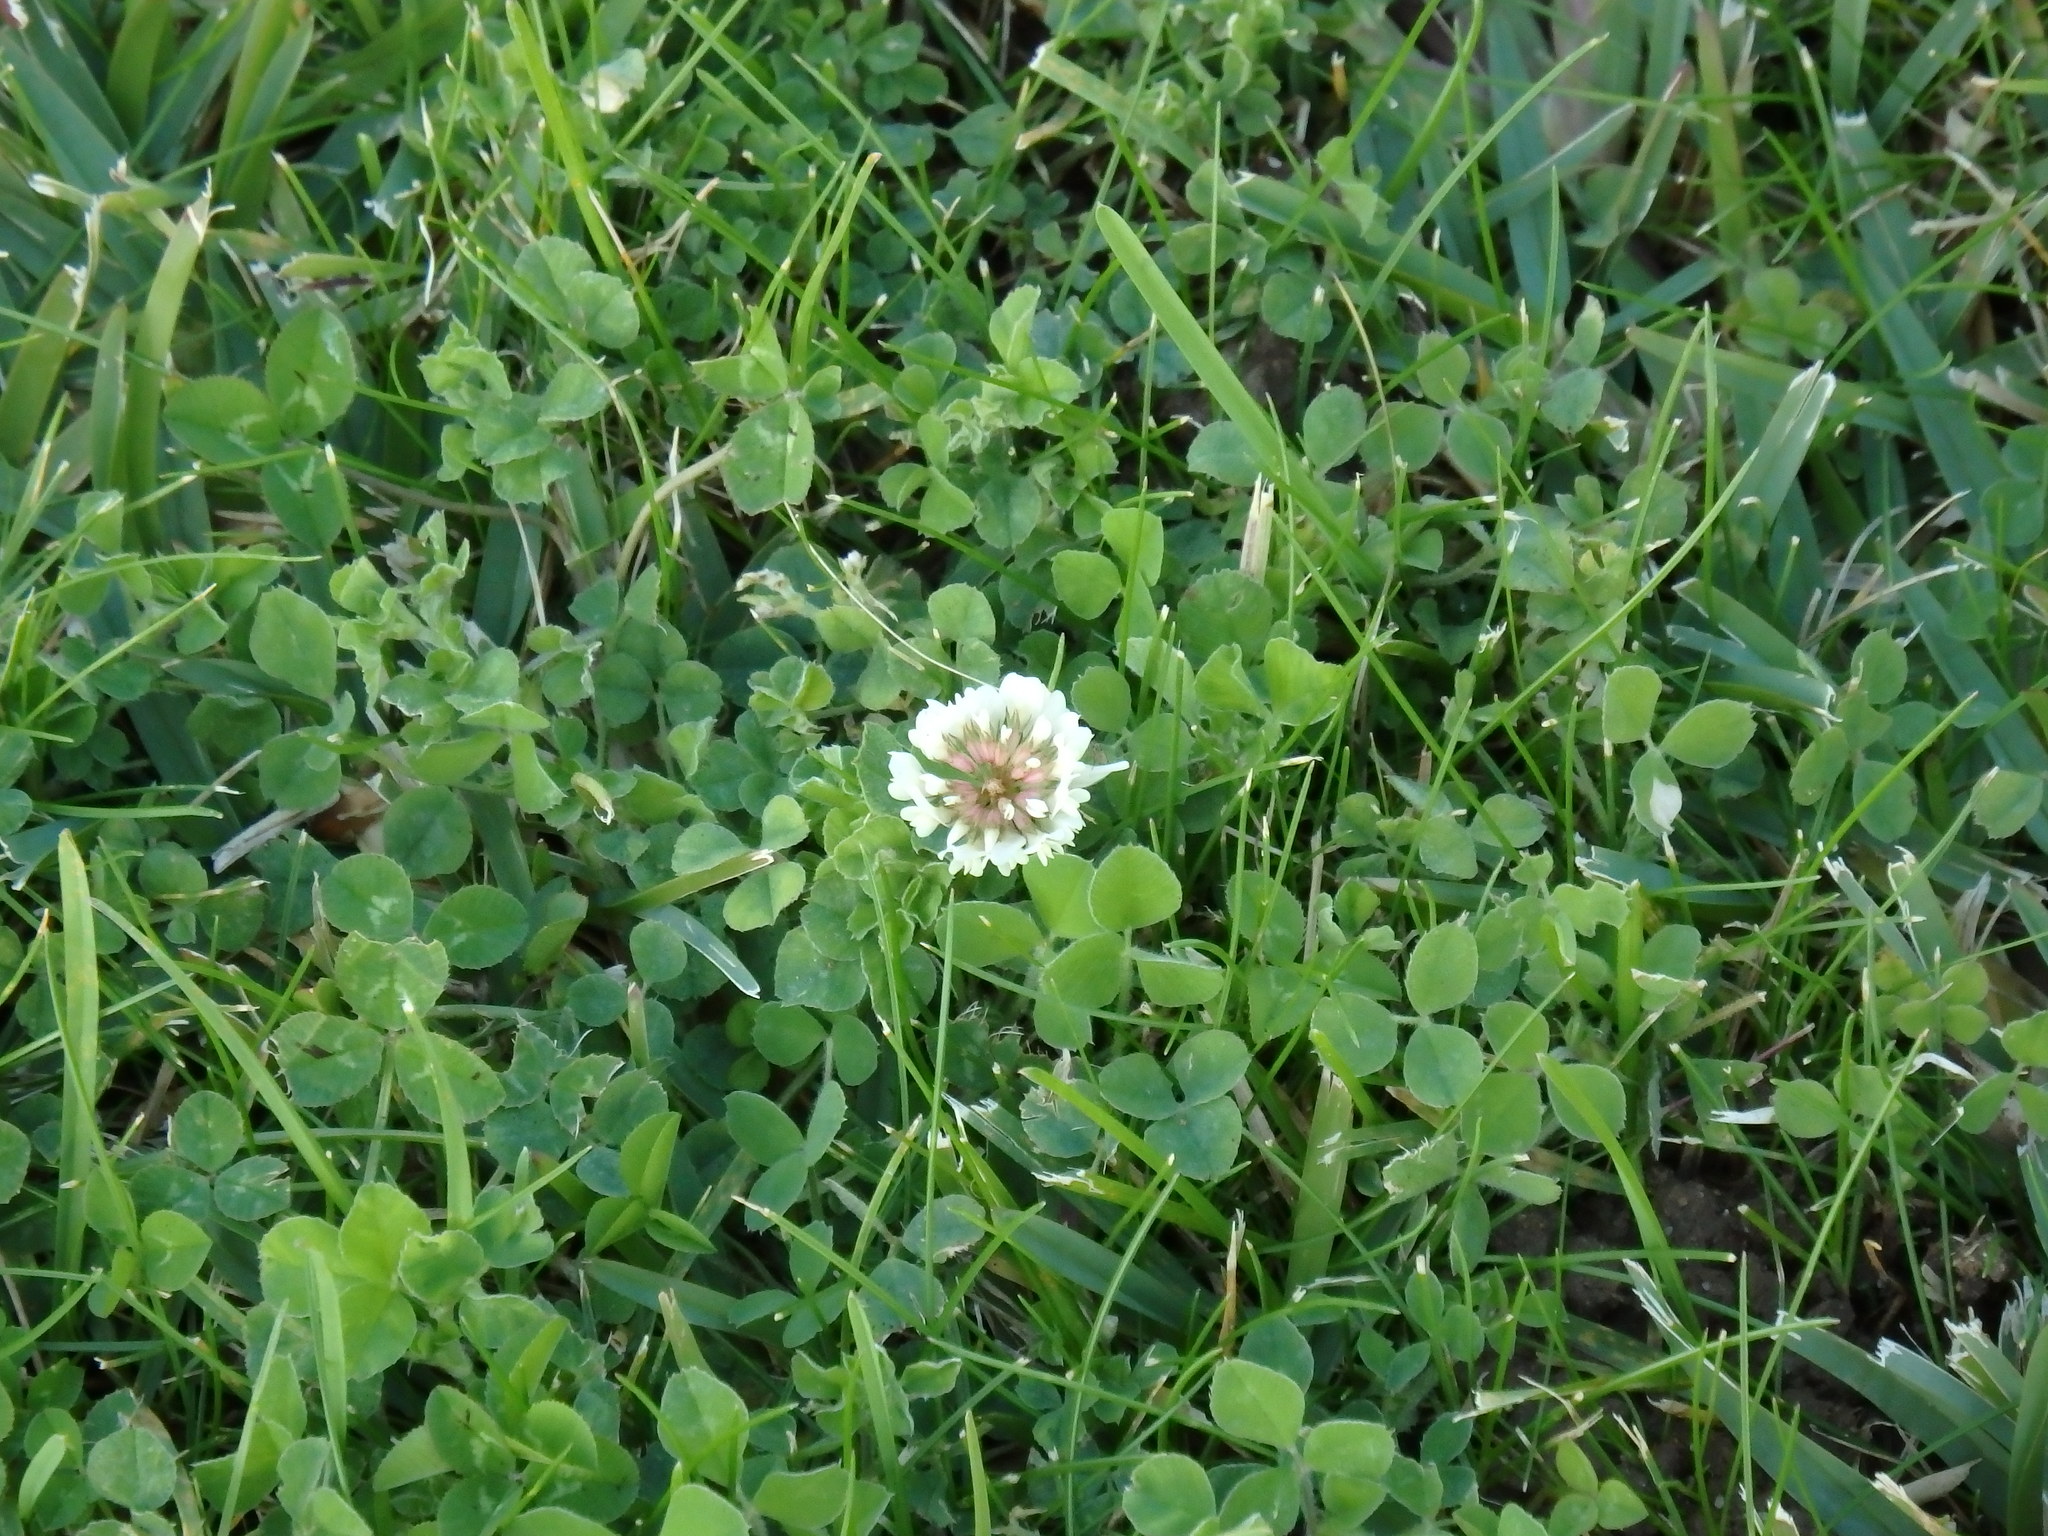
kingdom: Plantae
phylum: Tracheophyta
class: Magnoliopsida
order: Fabales
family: Fabaceae
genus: Trifolium
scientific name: Trifolium repens
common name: White clover
